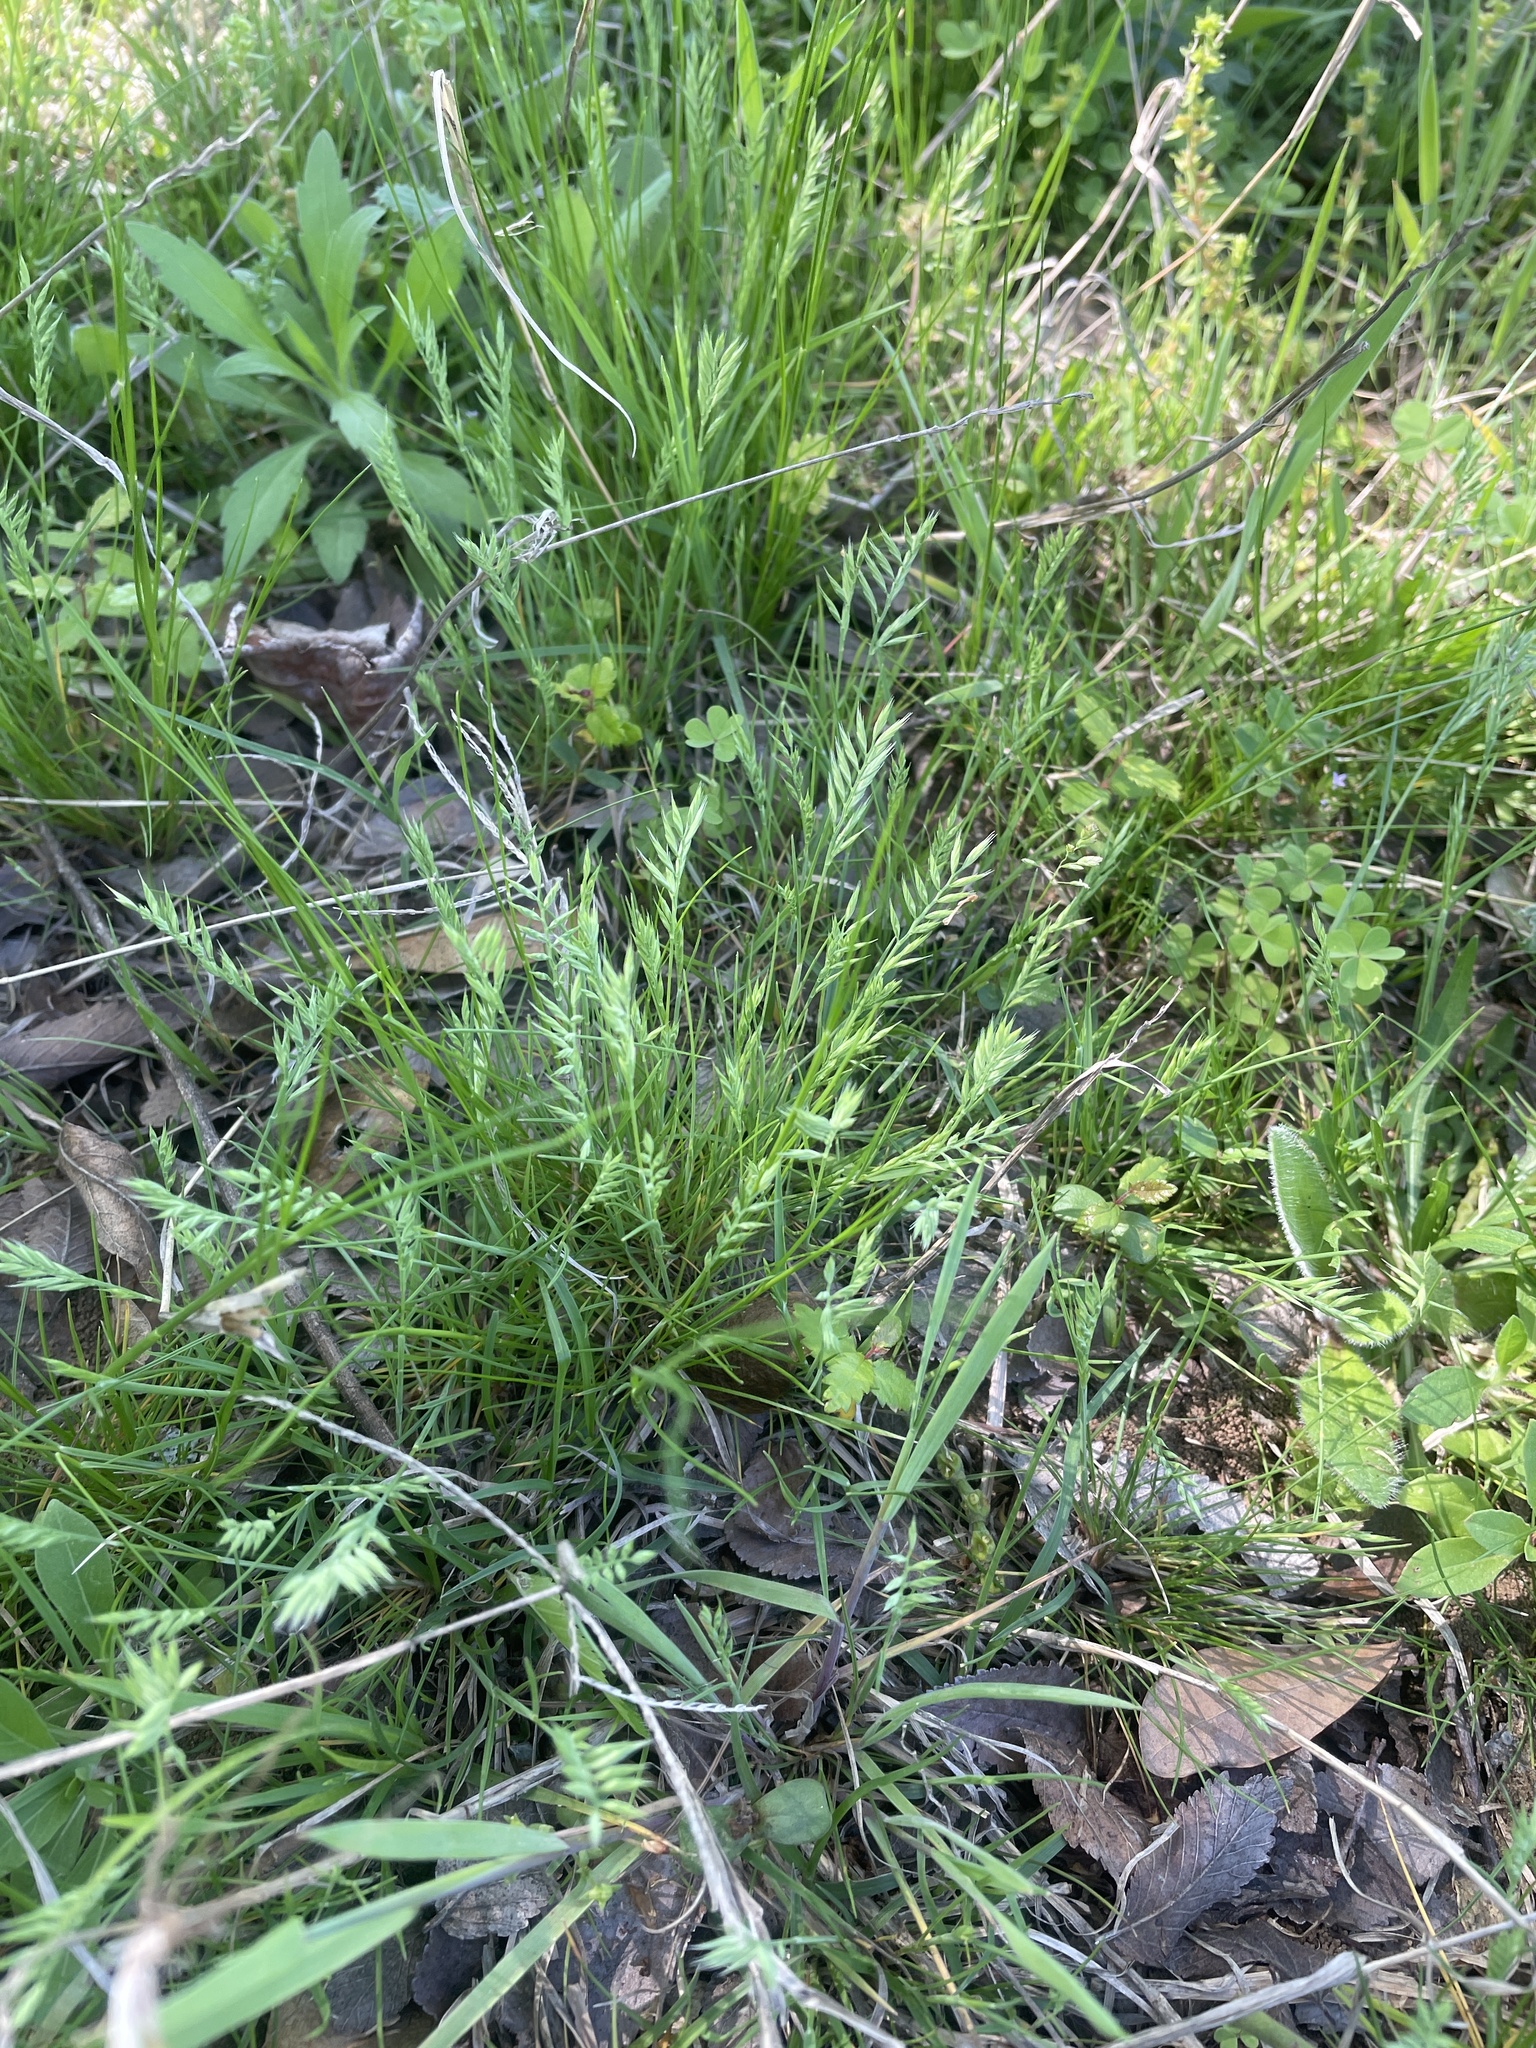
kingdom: Plantae
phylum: Tracheophyta
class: Liliopsida
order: Poales
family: Poaceae
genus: Festuca
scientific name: Festuca octoflora
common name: Sixweeks grass
